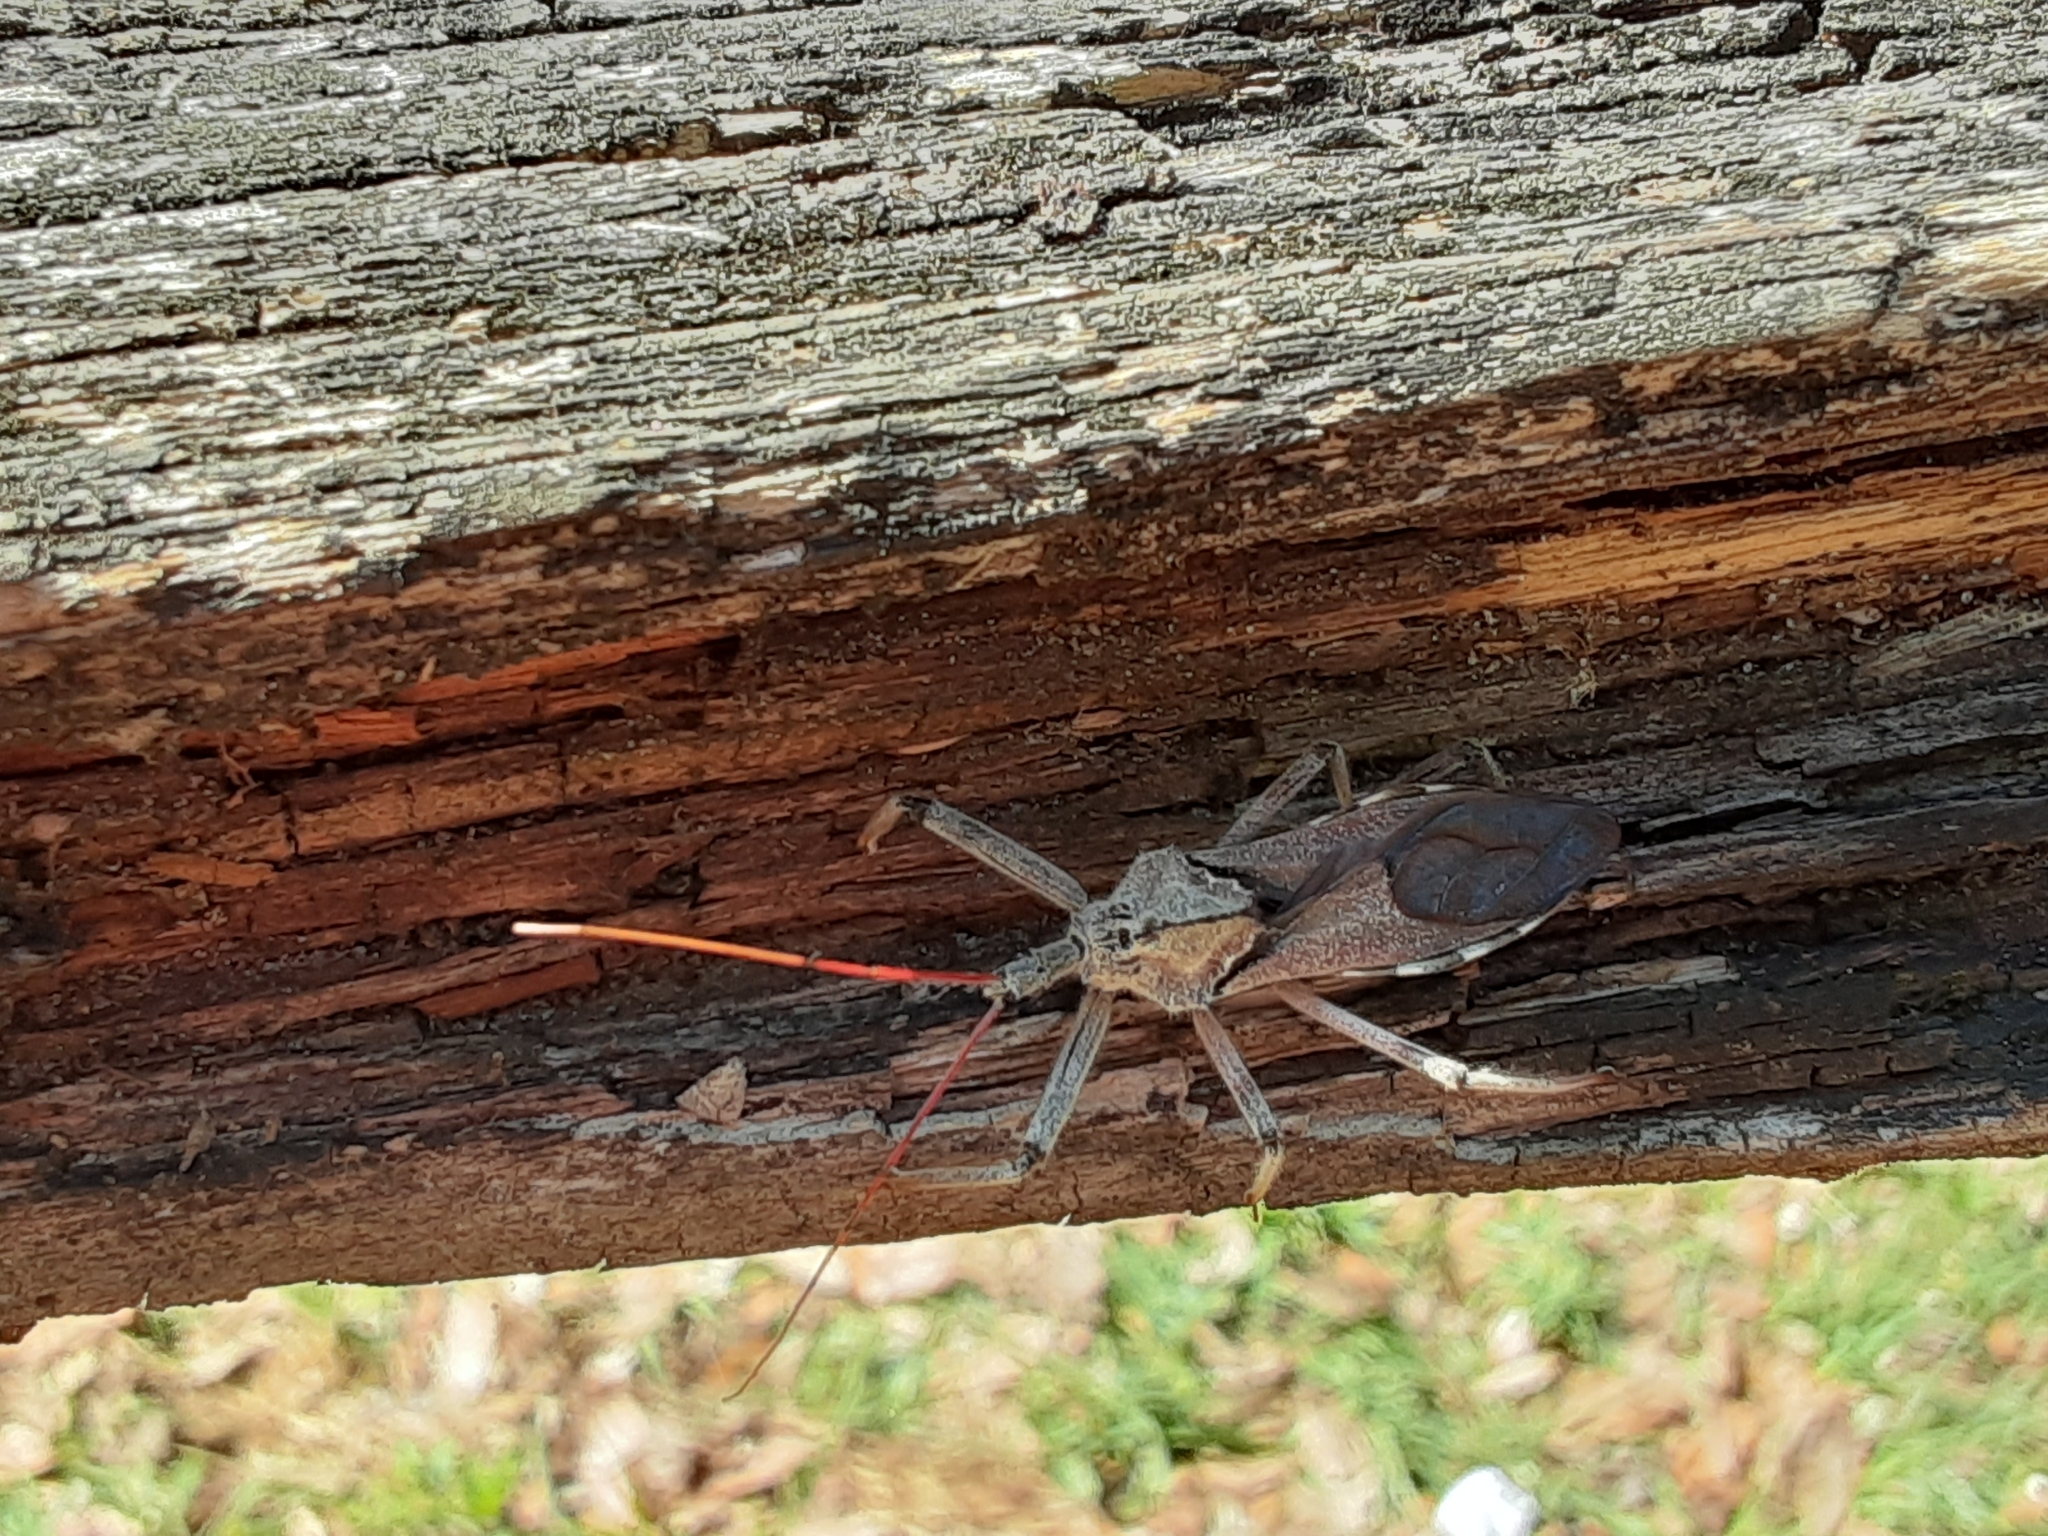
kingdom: Animalia
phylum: Arthropoda
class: Insecta
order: Hemiptera
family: Reduviidae
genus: Arilus
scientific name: Arilus cristatus
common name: North american wheel bug
